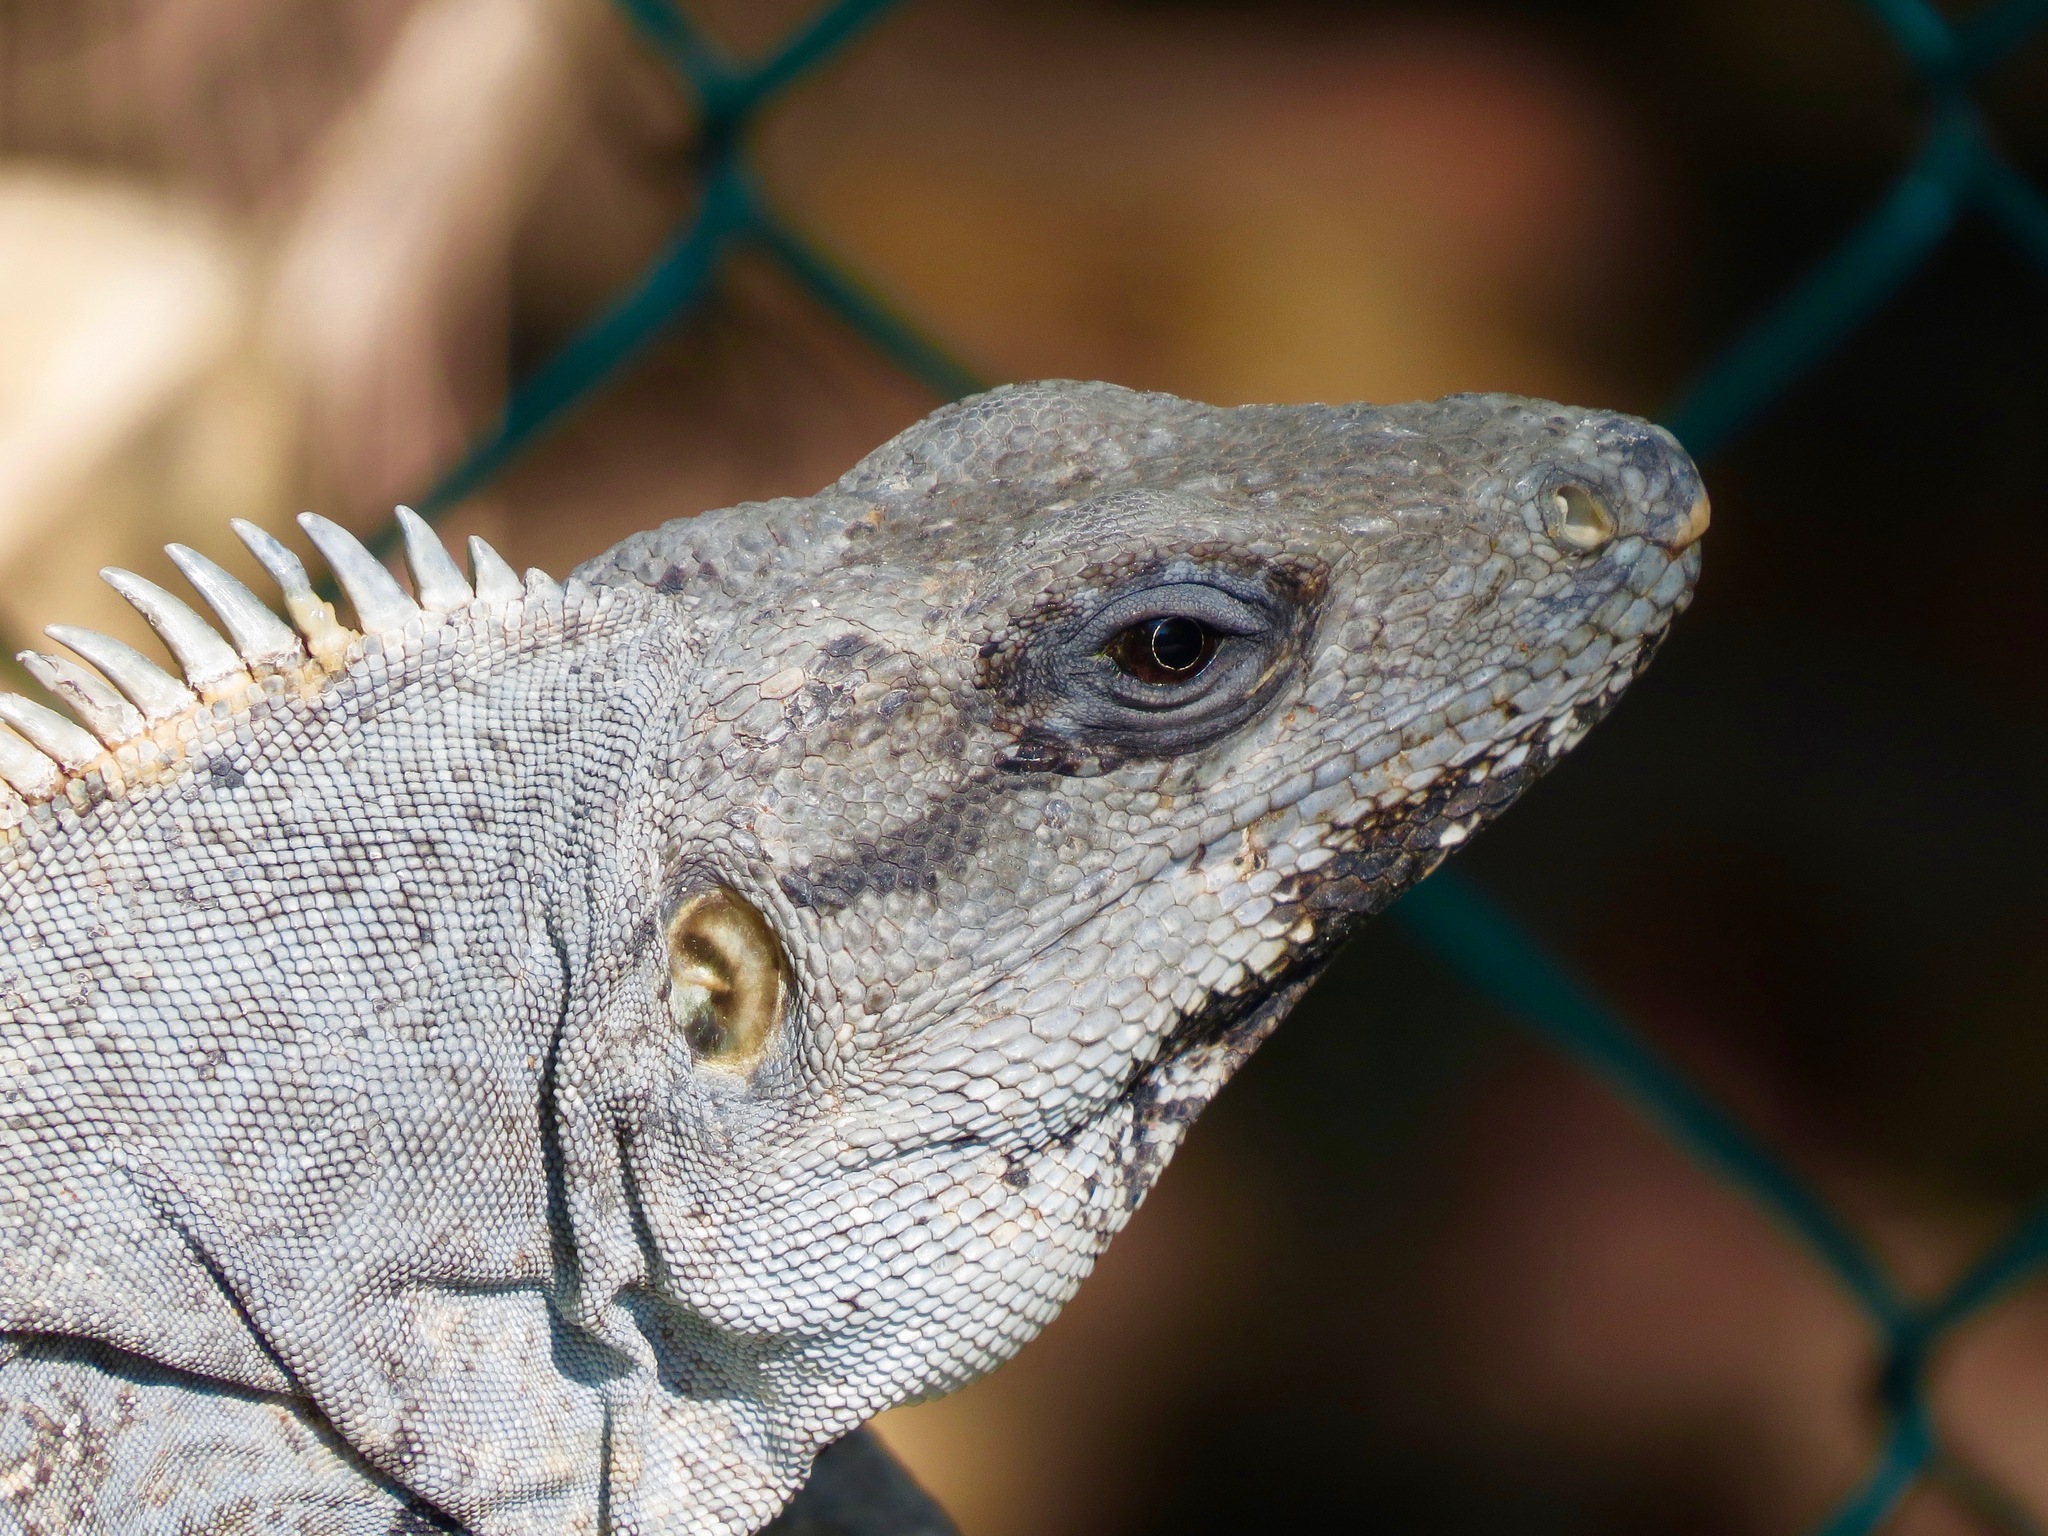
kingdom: Animalia
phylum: Chordata
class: Squamata
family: Iguanidae
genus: Ctenosaura
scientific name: Ctenosaura similis
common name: Black spiny-tailed iguana
